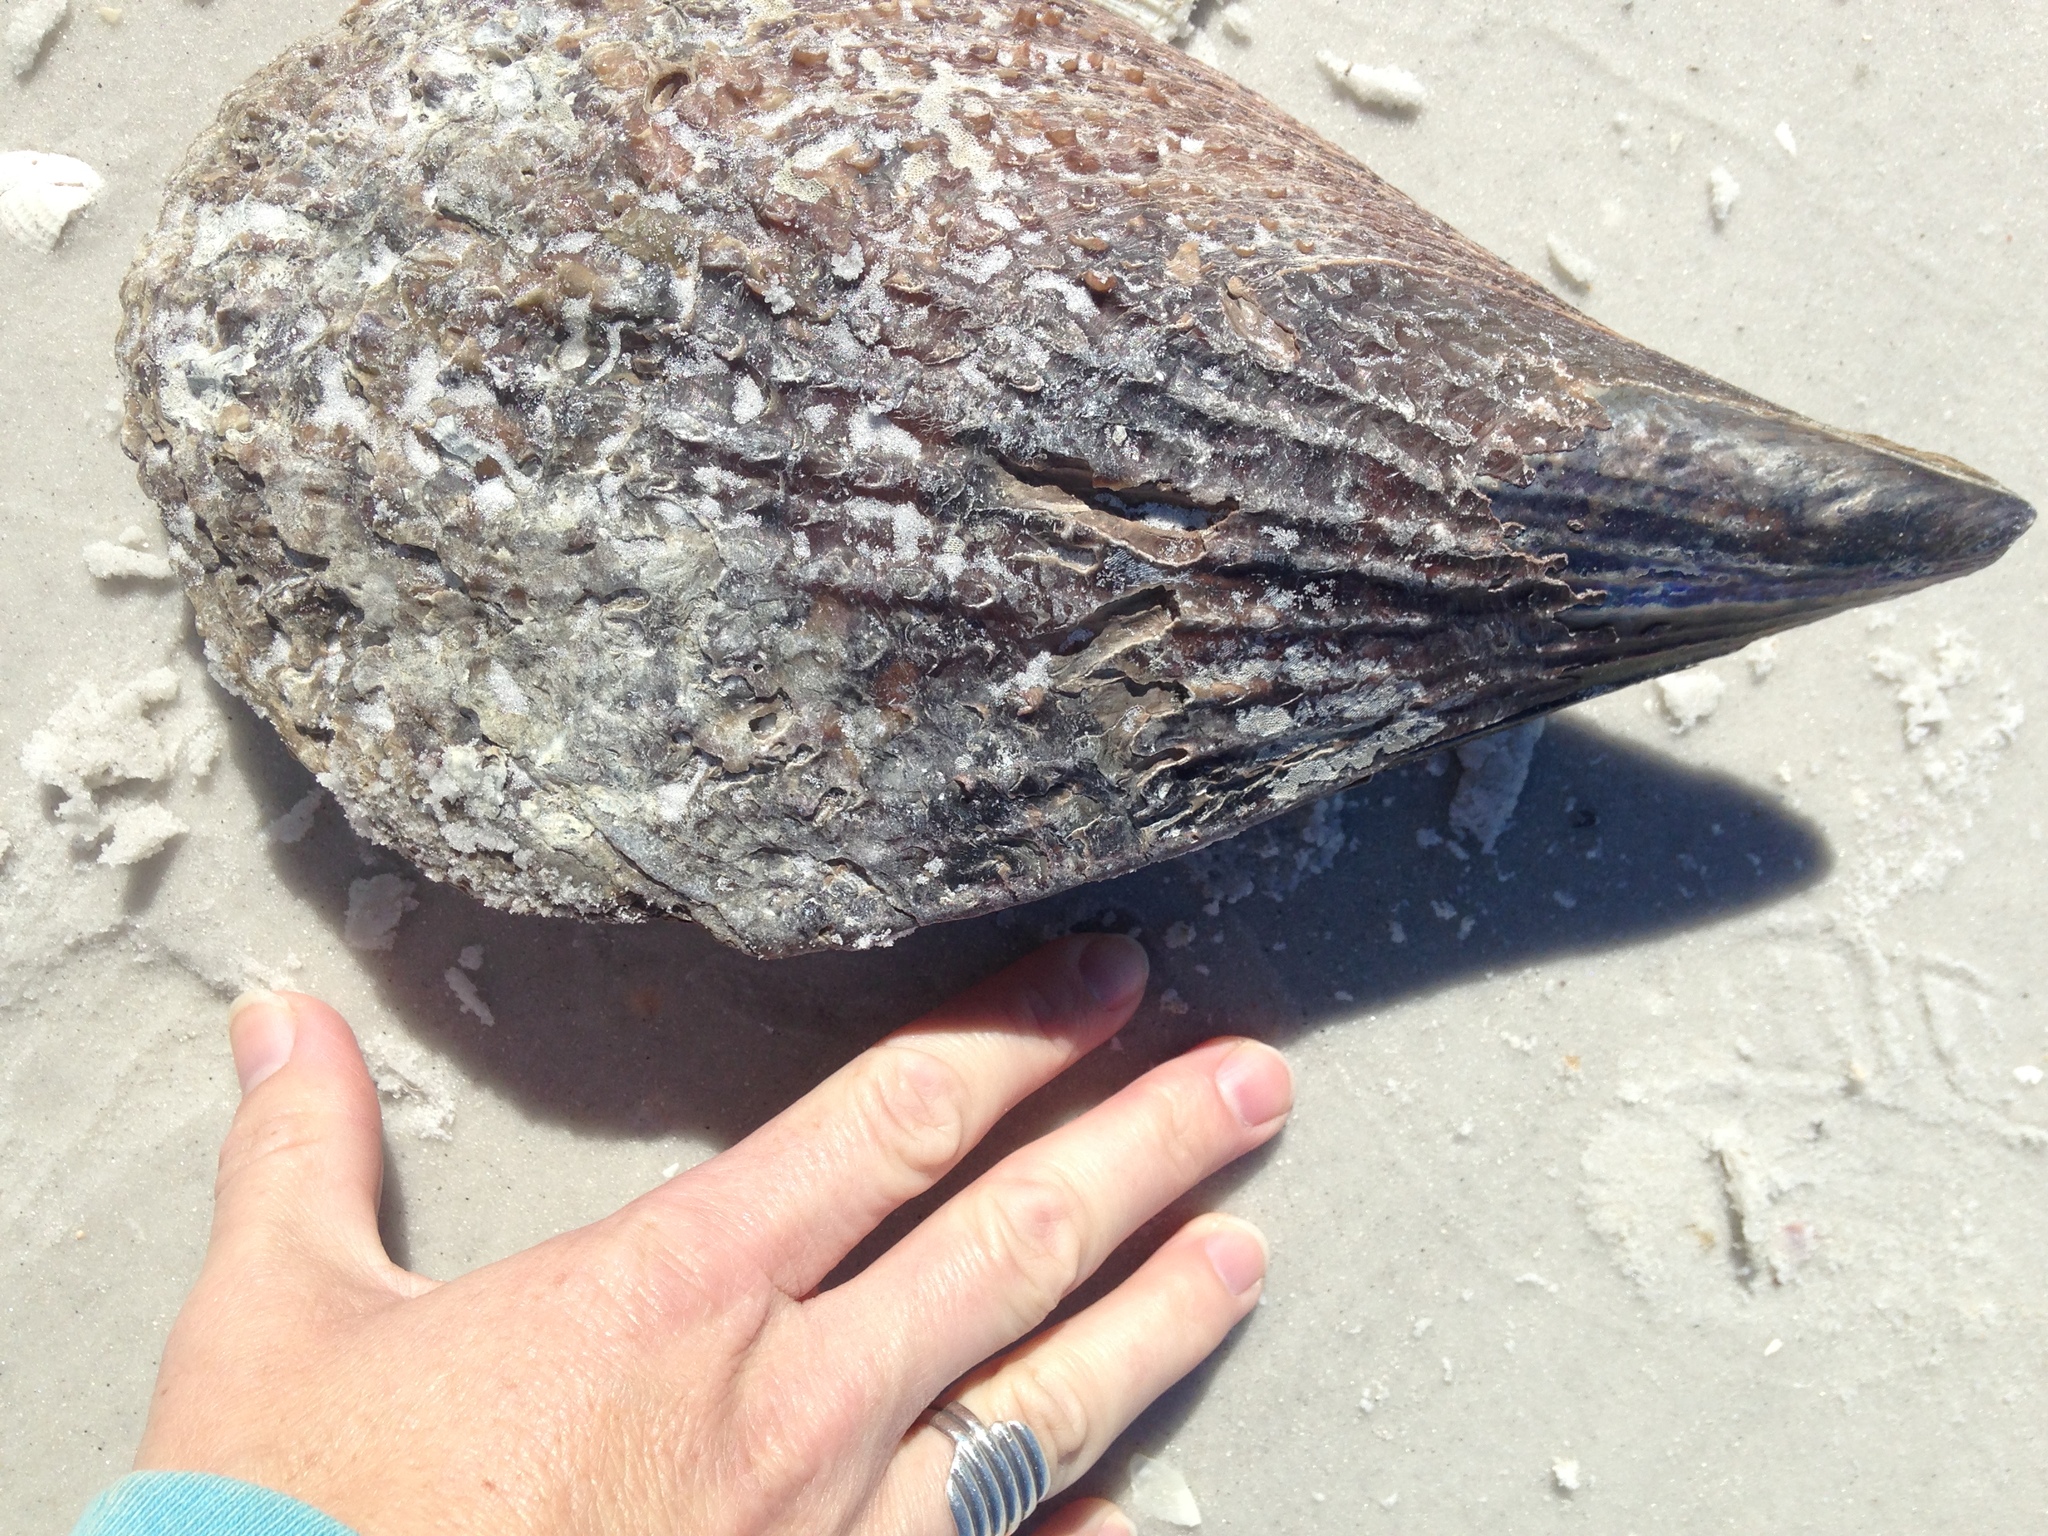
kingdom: Animalia
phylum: Mollusca
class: Bivalvia
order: Ostreida
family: Pinnidae
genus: Atrina
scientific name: Atrina rigida
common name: Stiff penshell
